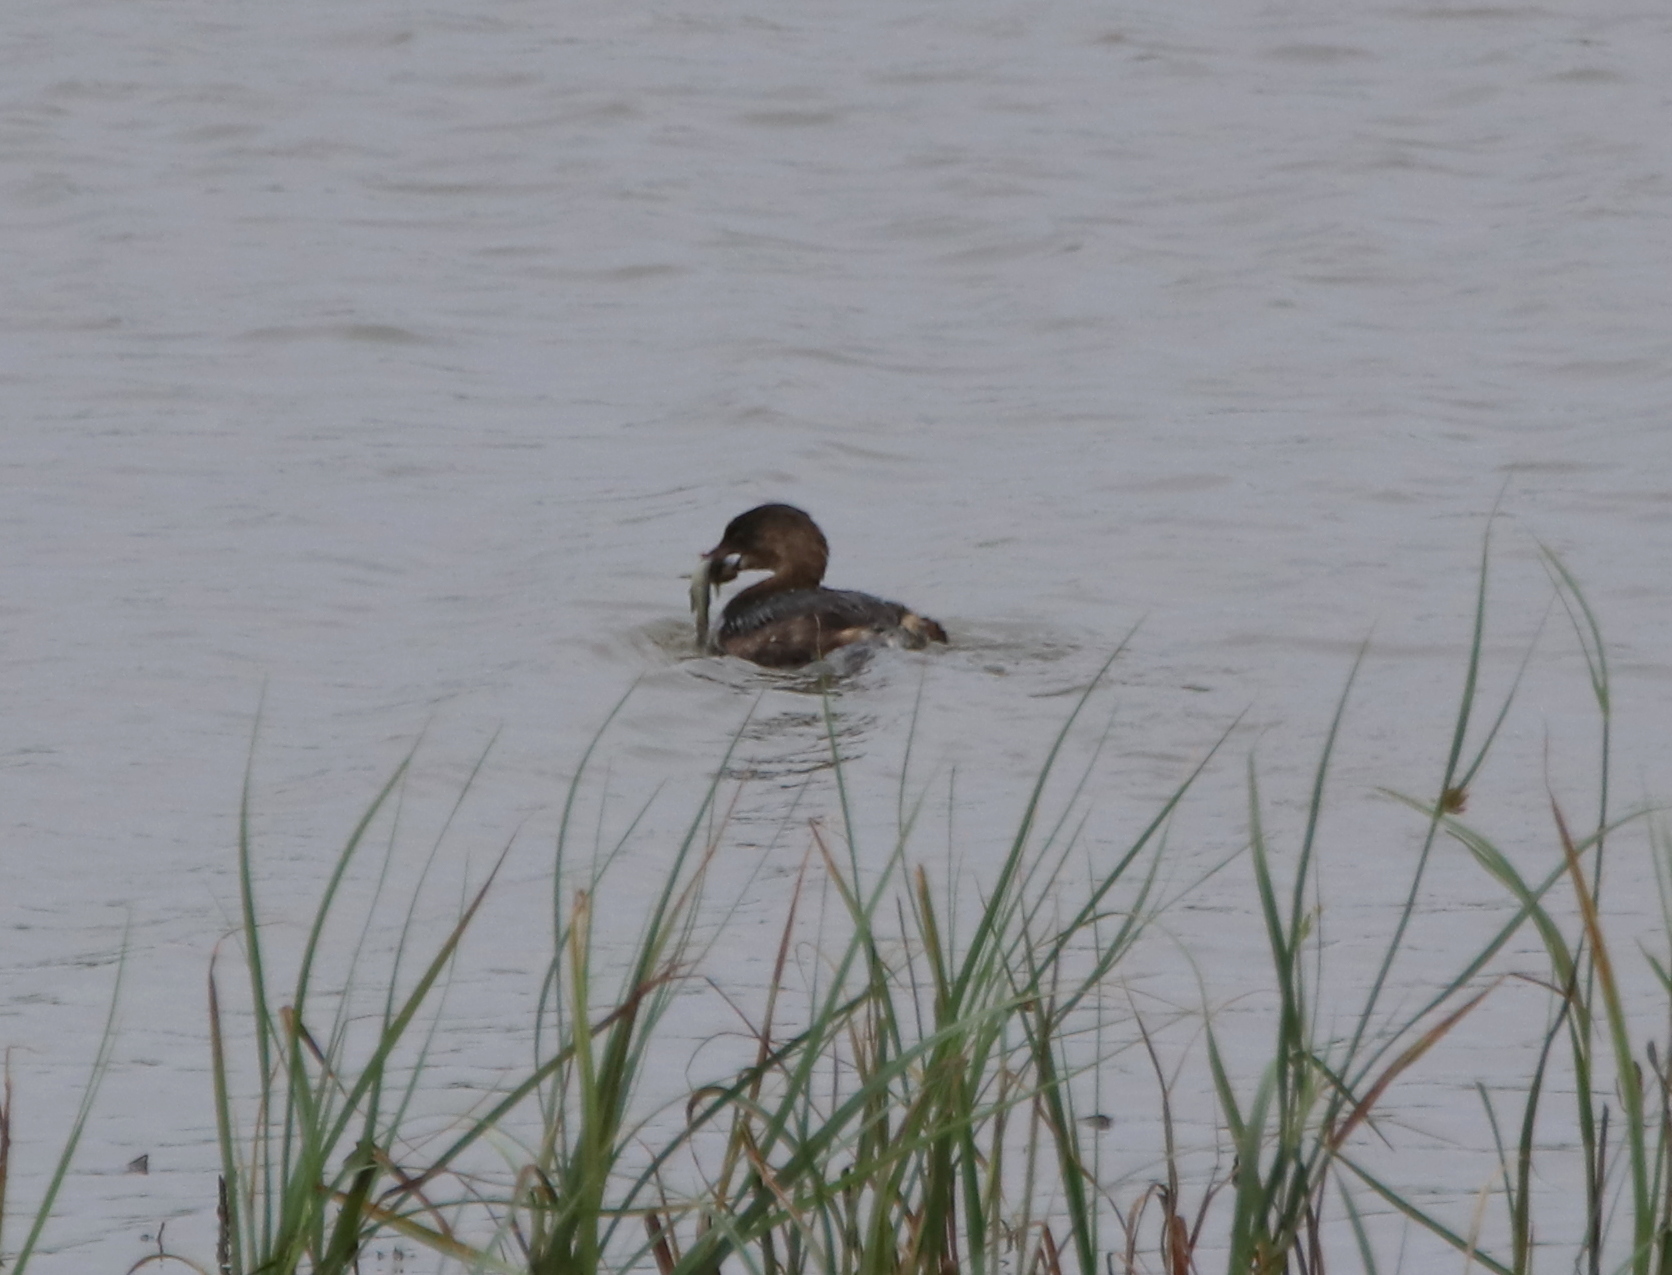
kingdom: Animalia
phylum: Chordata
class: Aves
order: Podicipediformes
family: Podicipedidae
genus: Podilymbus
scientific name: Podilymbus podiceps
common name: Pied-billed grebe
